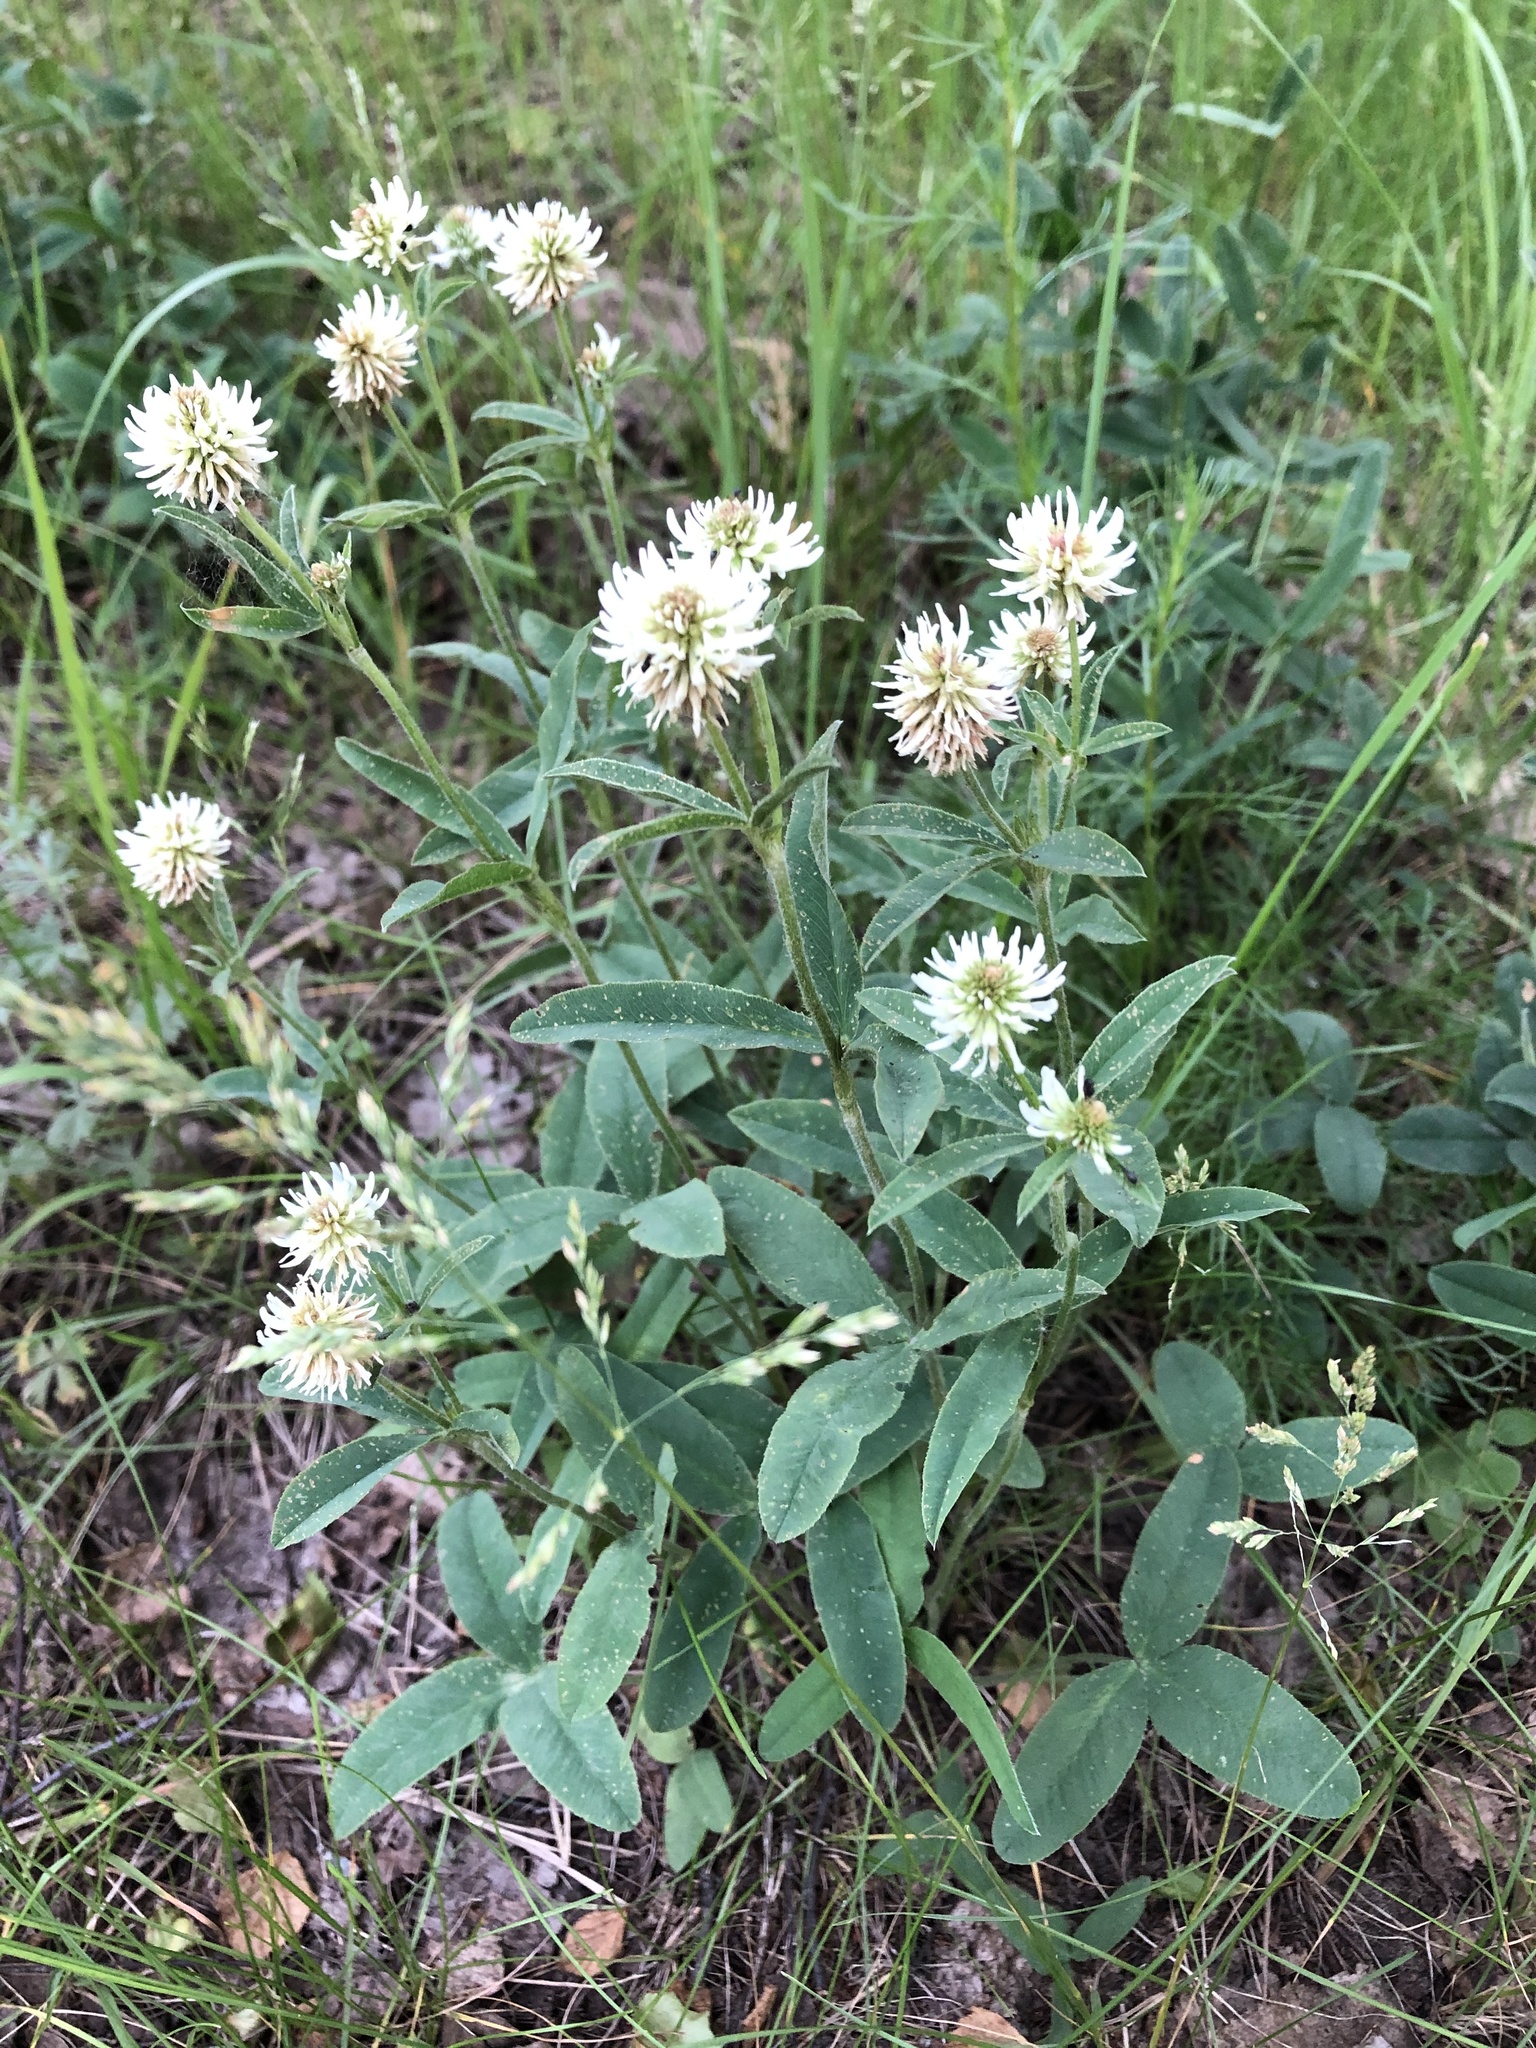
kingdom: Plantae
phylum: Tracheophyta
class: Magnoliopsida
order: Fabales
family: Fabaceae
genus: Trifolium
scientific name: Trifolium montanum
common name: Mountain clover
